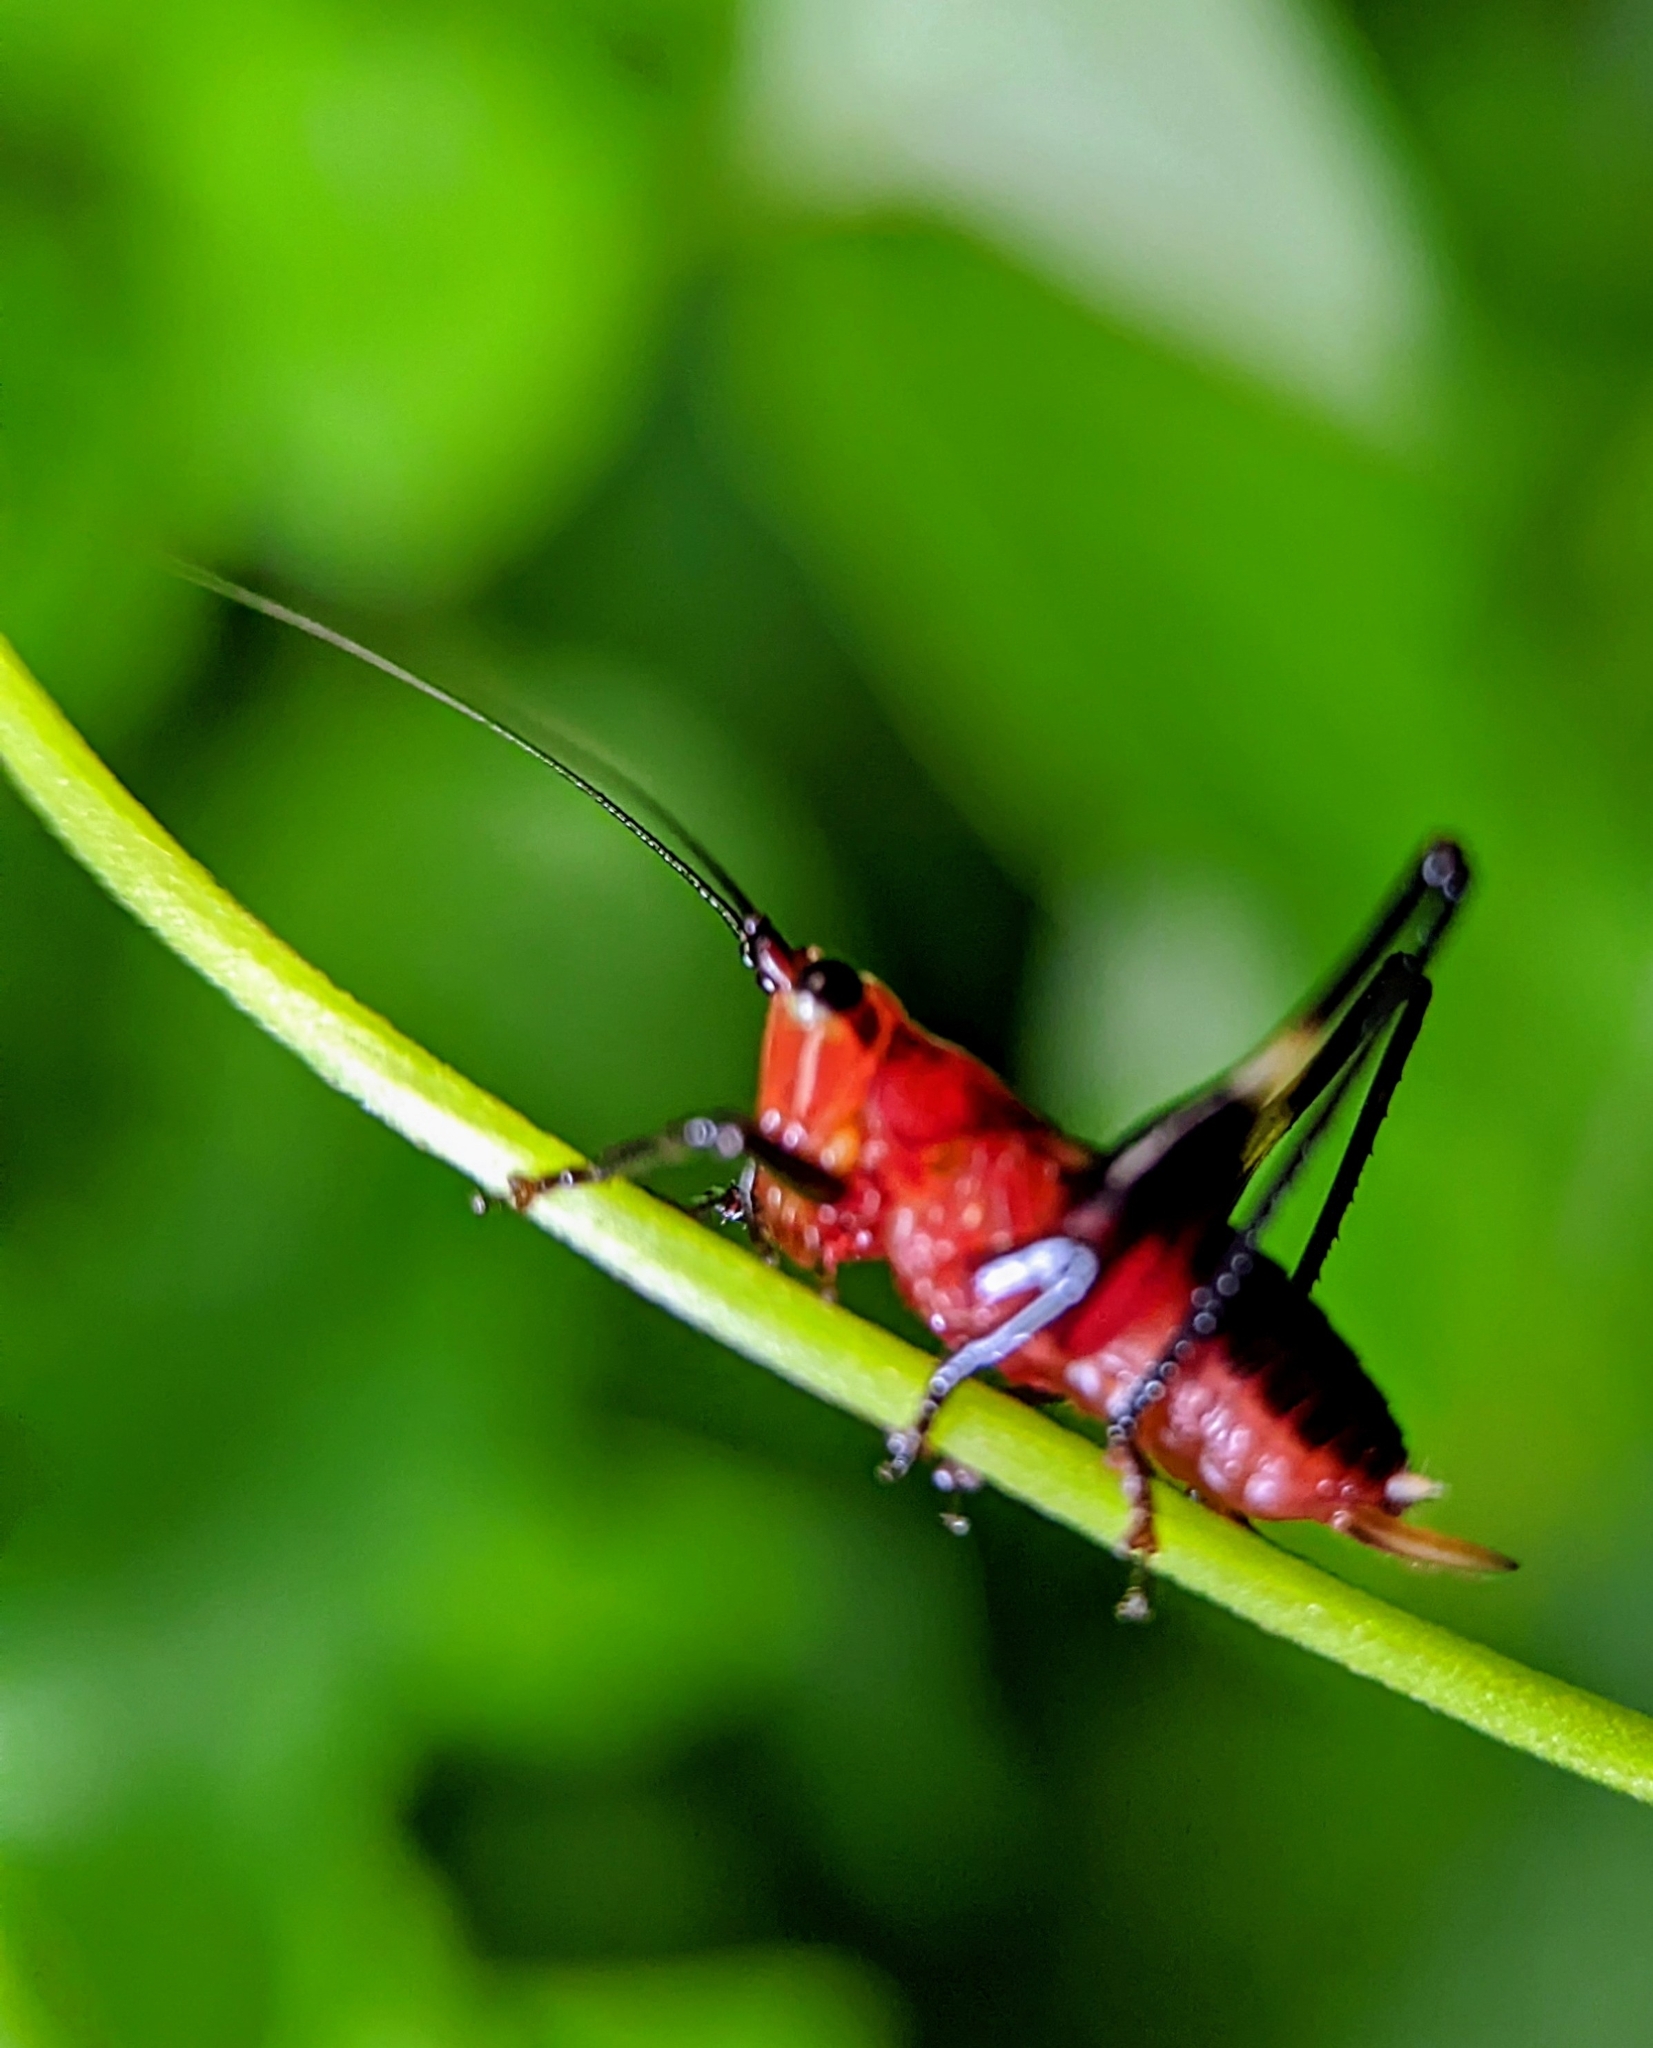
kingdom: Animalia
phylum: Arthropoda
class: Insecta
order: Orthoptera
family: Tettigoniidae
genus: Conocephalus
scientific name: Conocephalus melaenus
